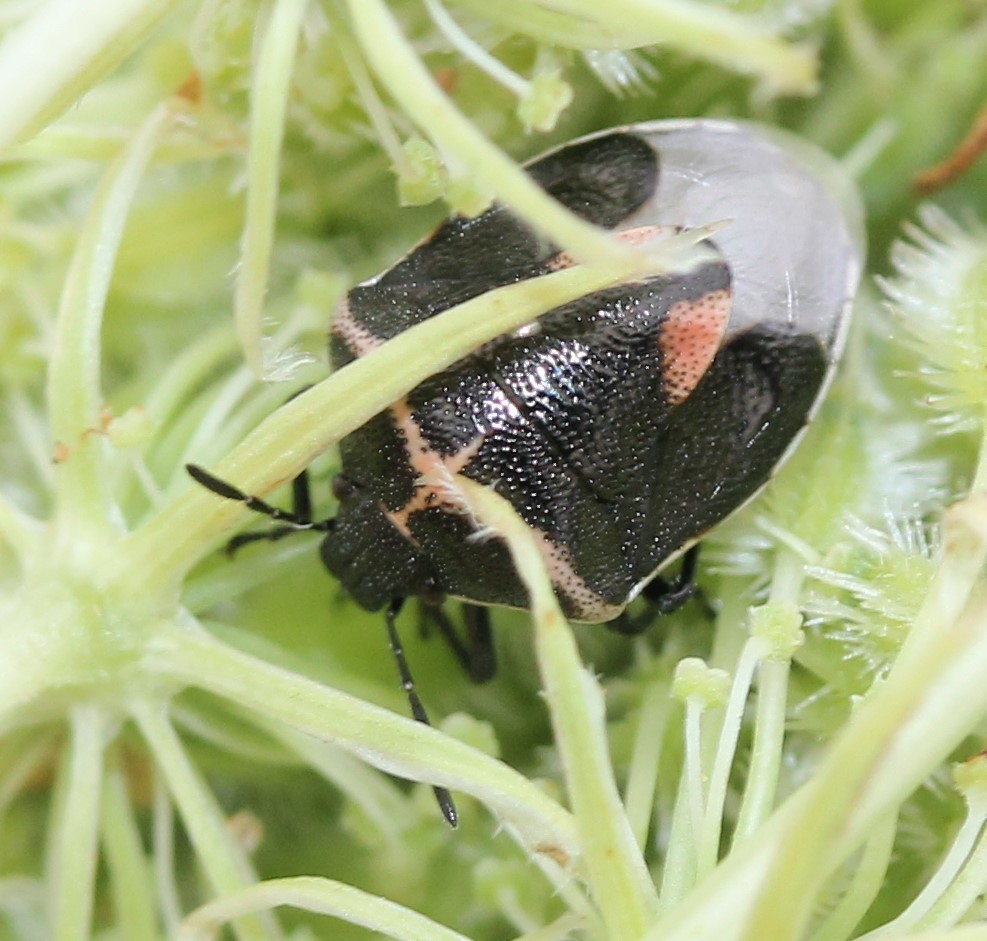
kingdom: Animalia
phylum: Arthropoda
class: Insecta
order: Hemiptera
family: Pentatomidae
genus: Cosmopepla
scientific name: Cosmopepla lintneriana
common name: Twice-stabbed stink bug
